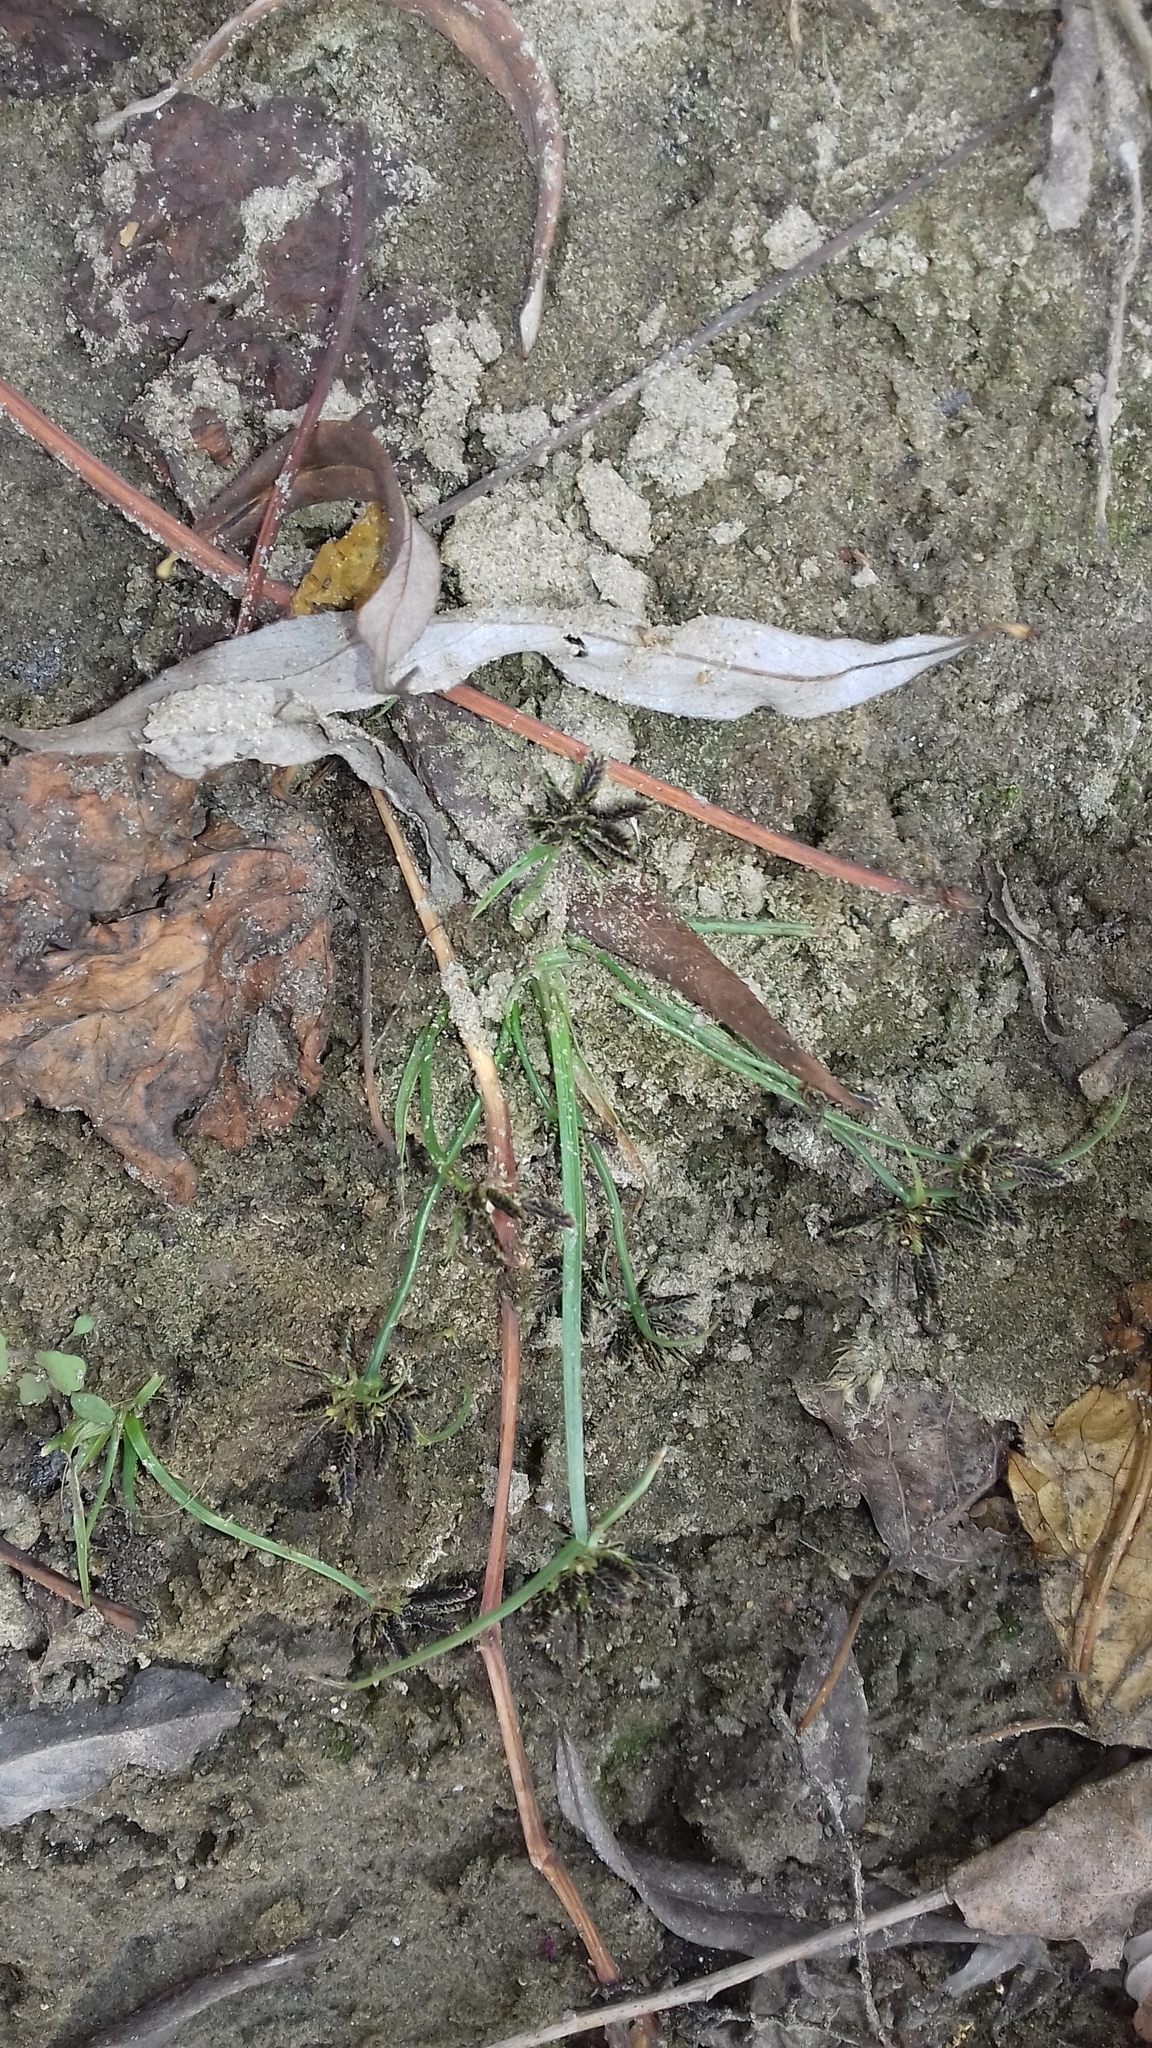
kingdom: Plantae
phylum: Tracheophyta
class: Liliopsida
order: Poales
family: Cyperaceae
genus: Cyperus
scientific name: Cyperus fuscus
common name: Brown galingale
